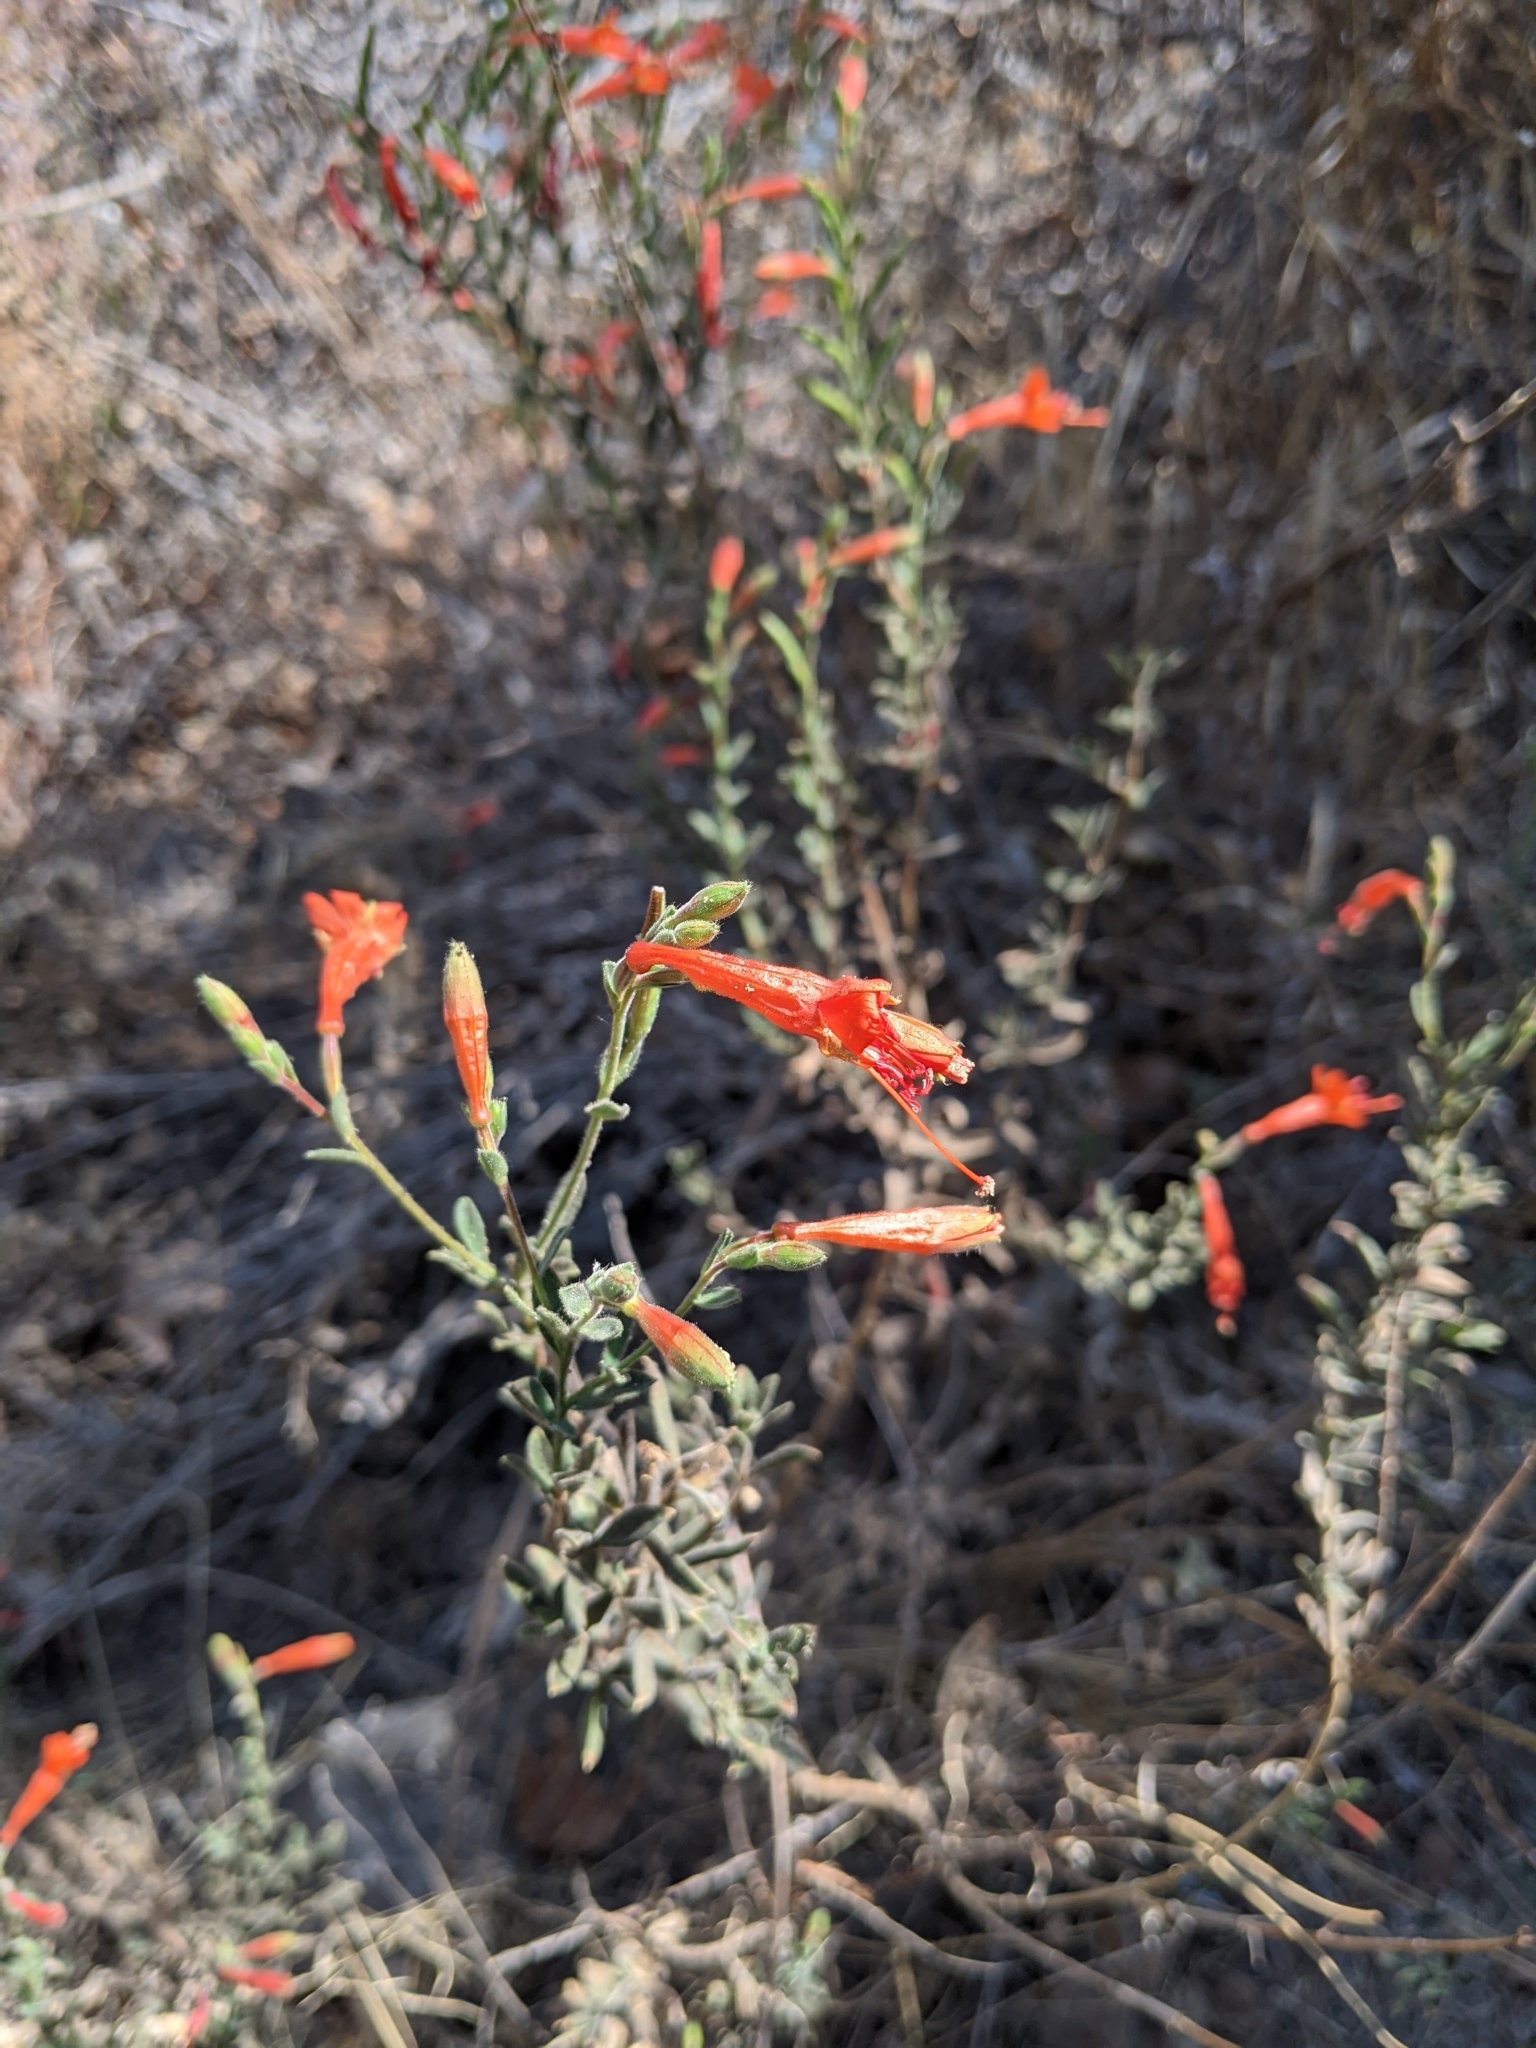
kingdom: Plantae
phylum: Tracheophyta
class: Magnoliopsida
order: Myrtales
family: Onagraceae
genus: Epilobium
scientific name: Epilobium canum
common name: California-fuchsia
